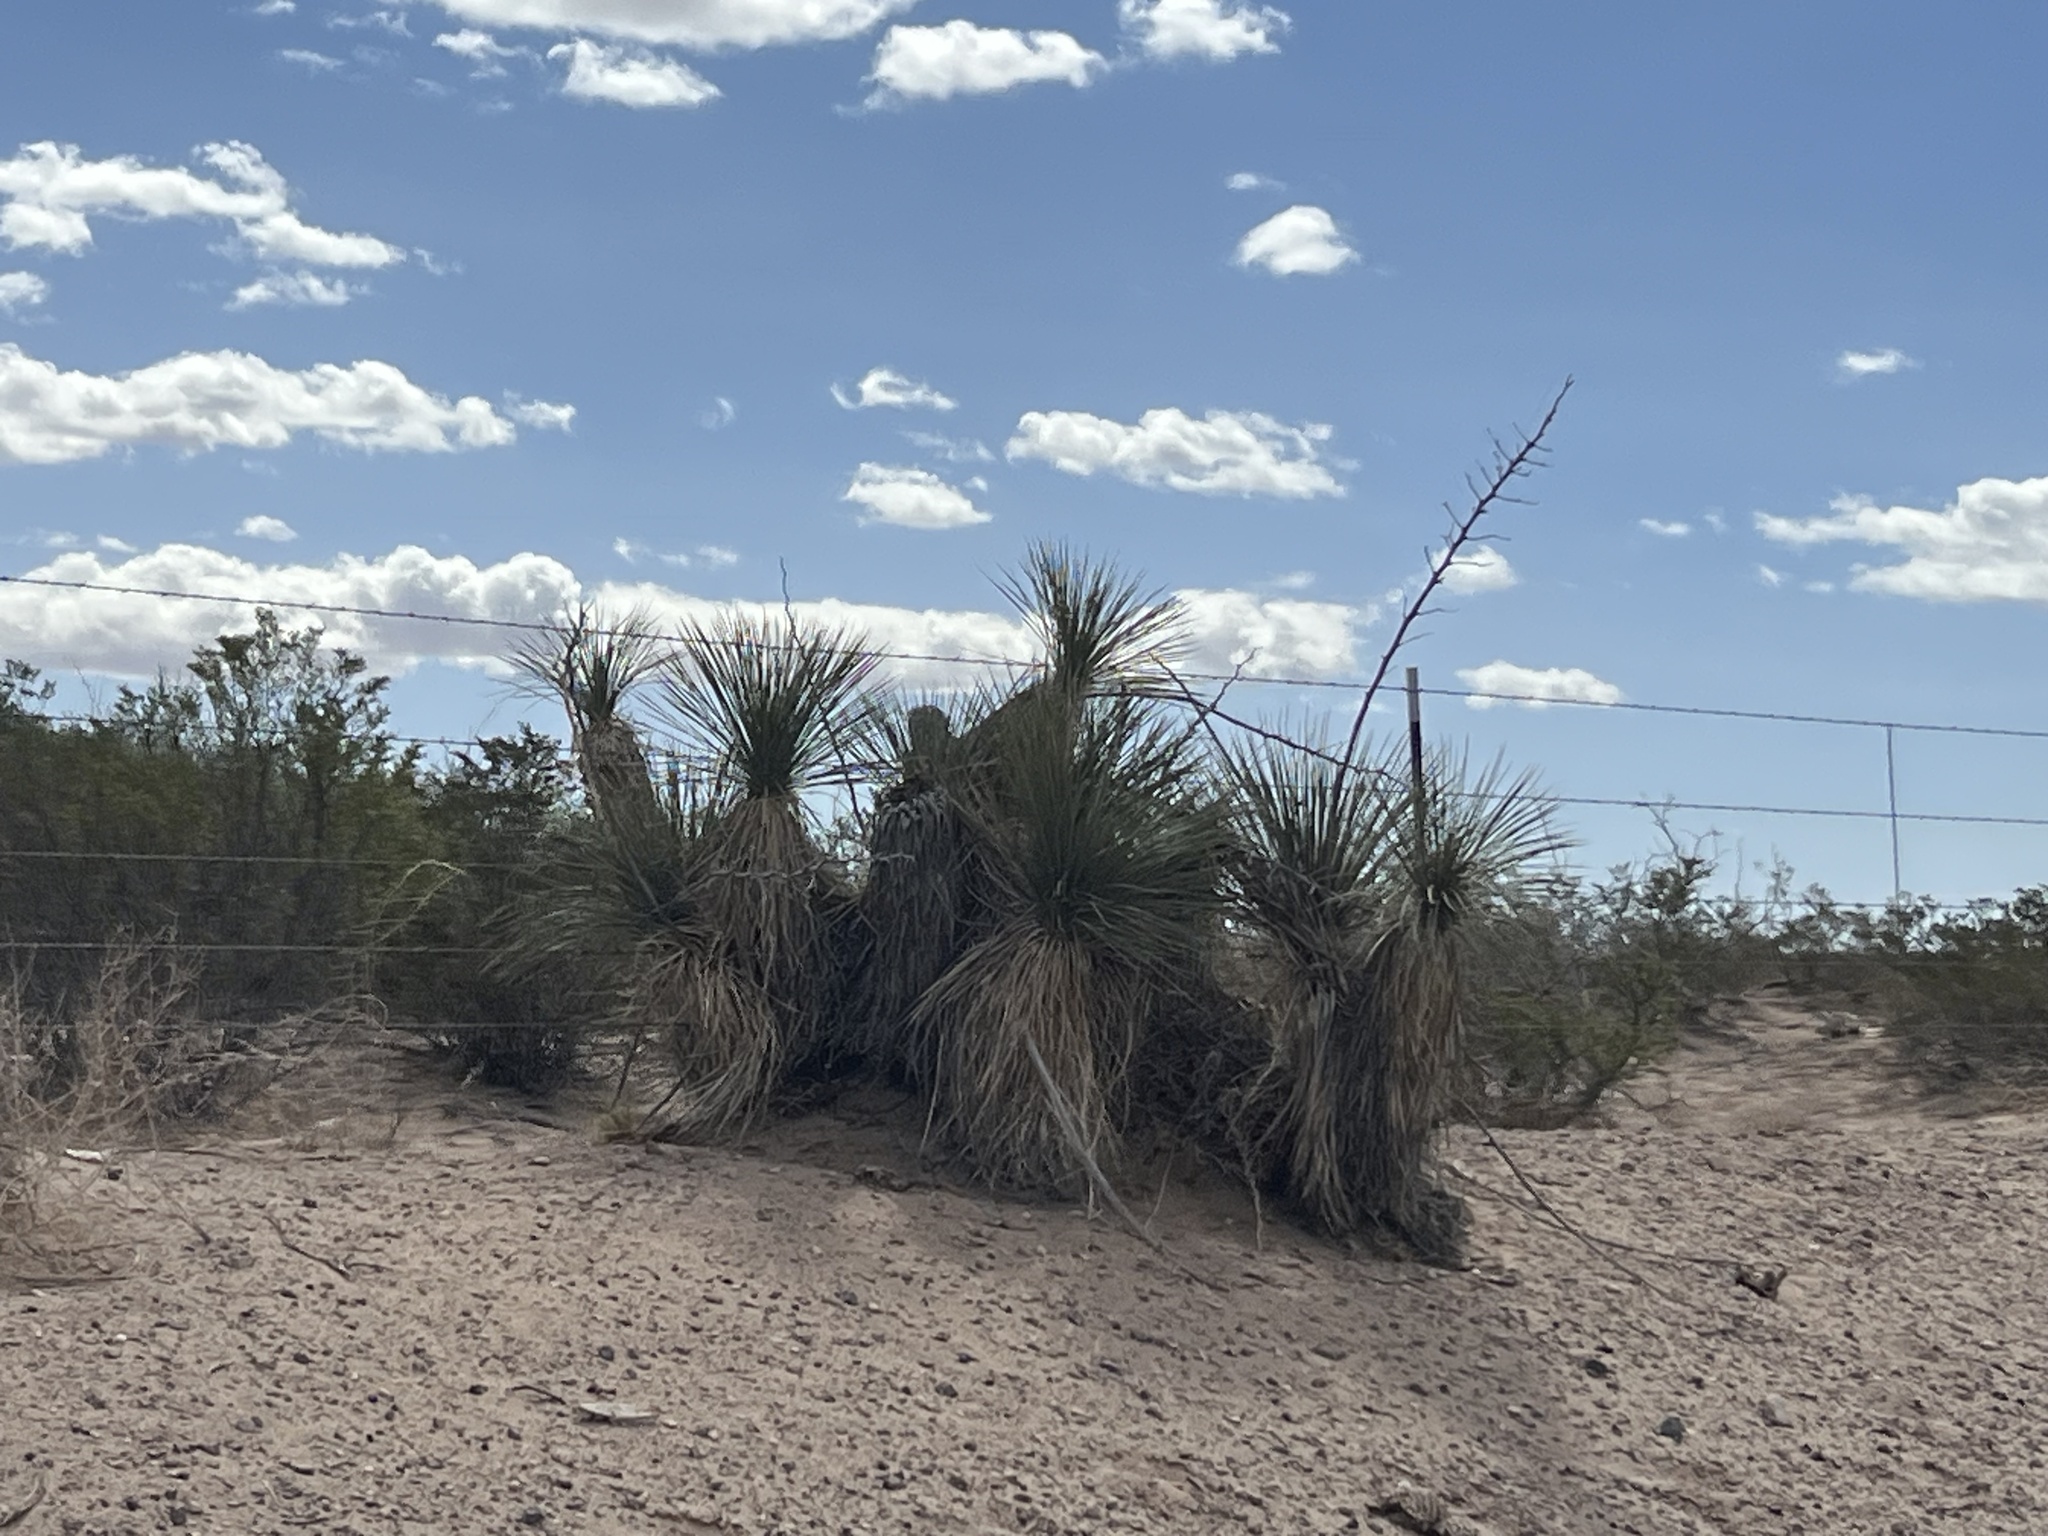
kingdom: Plantae
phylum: Tracheophyta
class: Liliopsida
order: Asparagales
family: Asparagaceae
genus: Yucca
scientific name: Yucca elata
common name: Palmella
